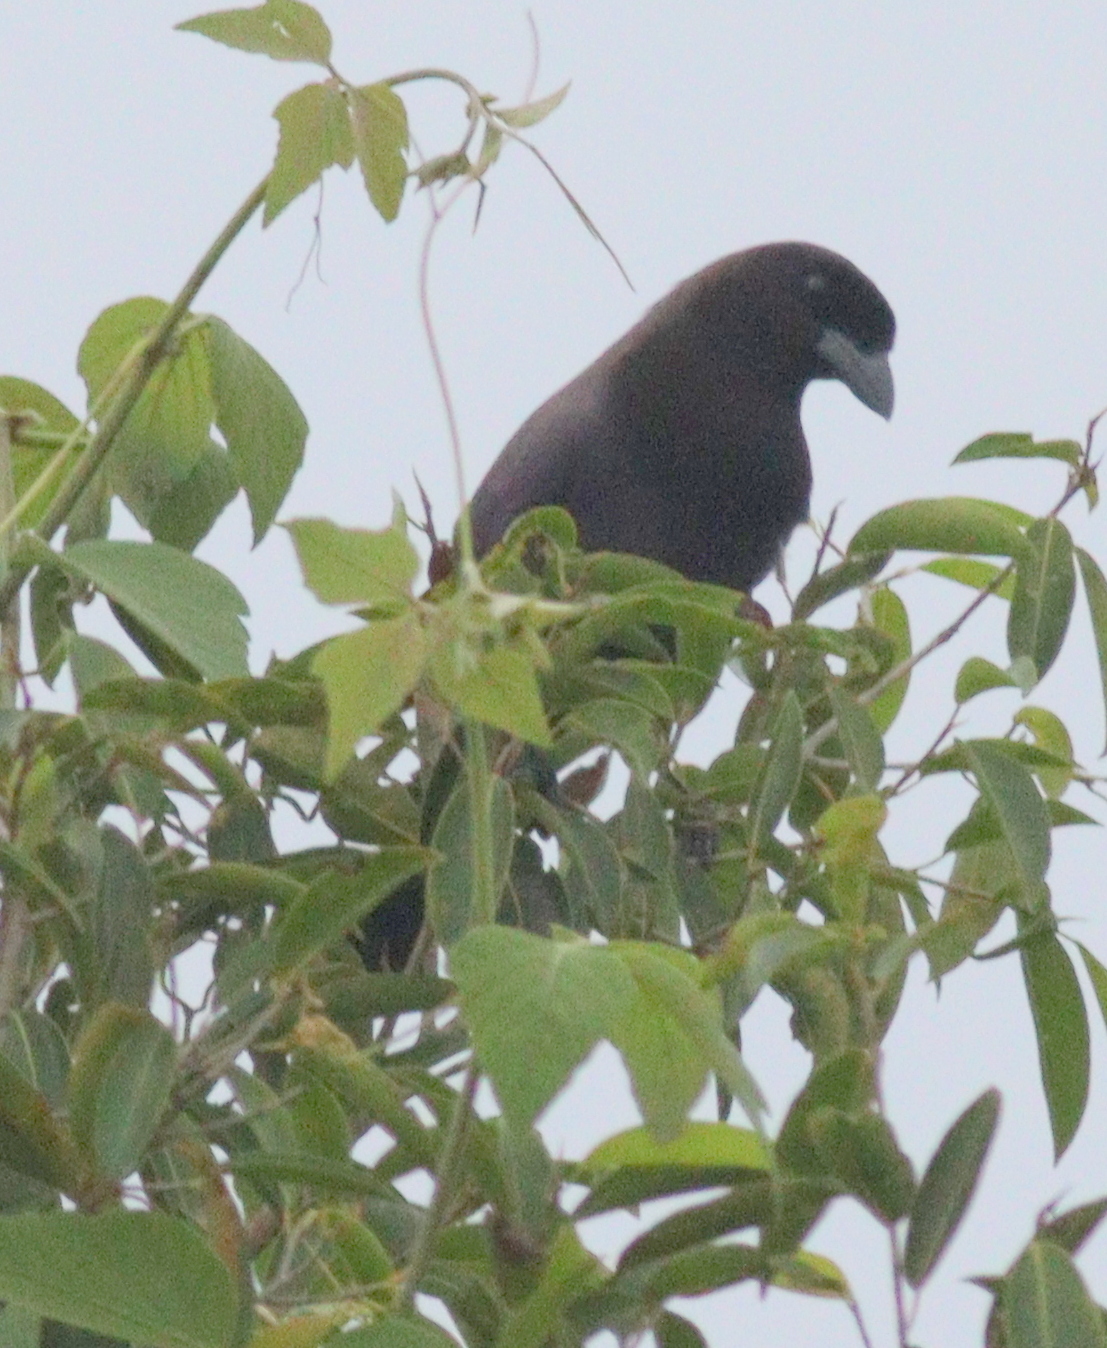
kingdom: Animalia
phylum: Chordata
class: Aves
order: Passeriformes
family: Corvidae
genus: Cyanocorax
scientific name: Cyanocorax cyanomelas
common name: Purplish jay
